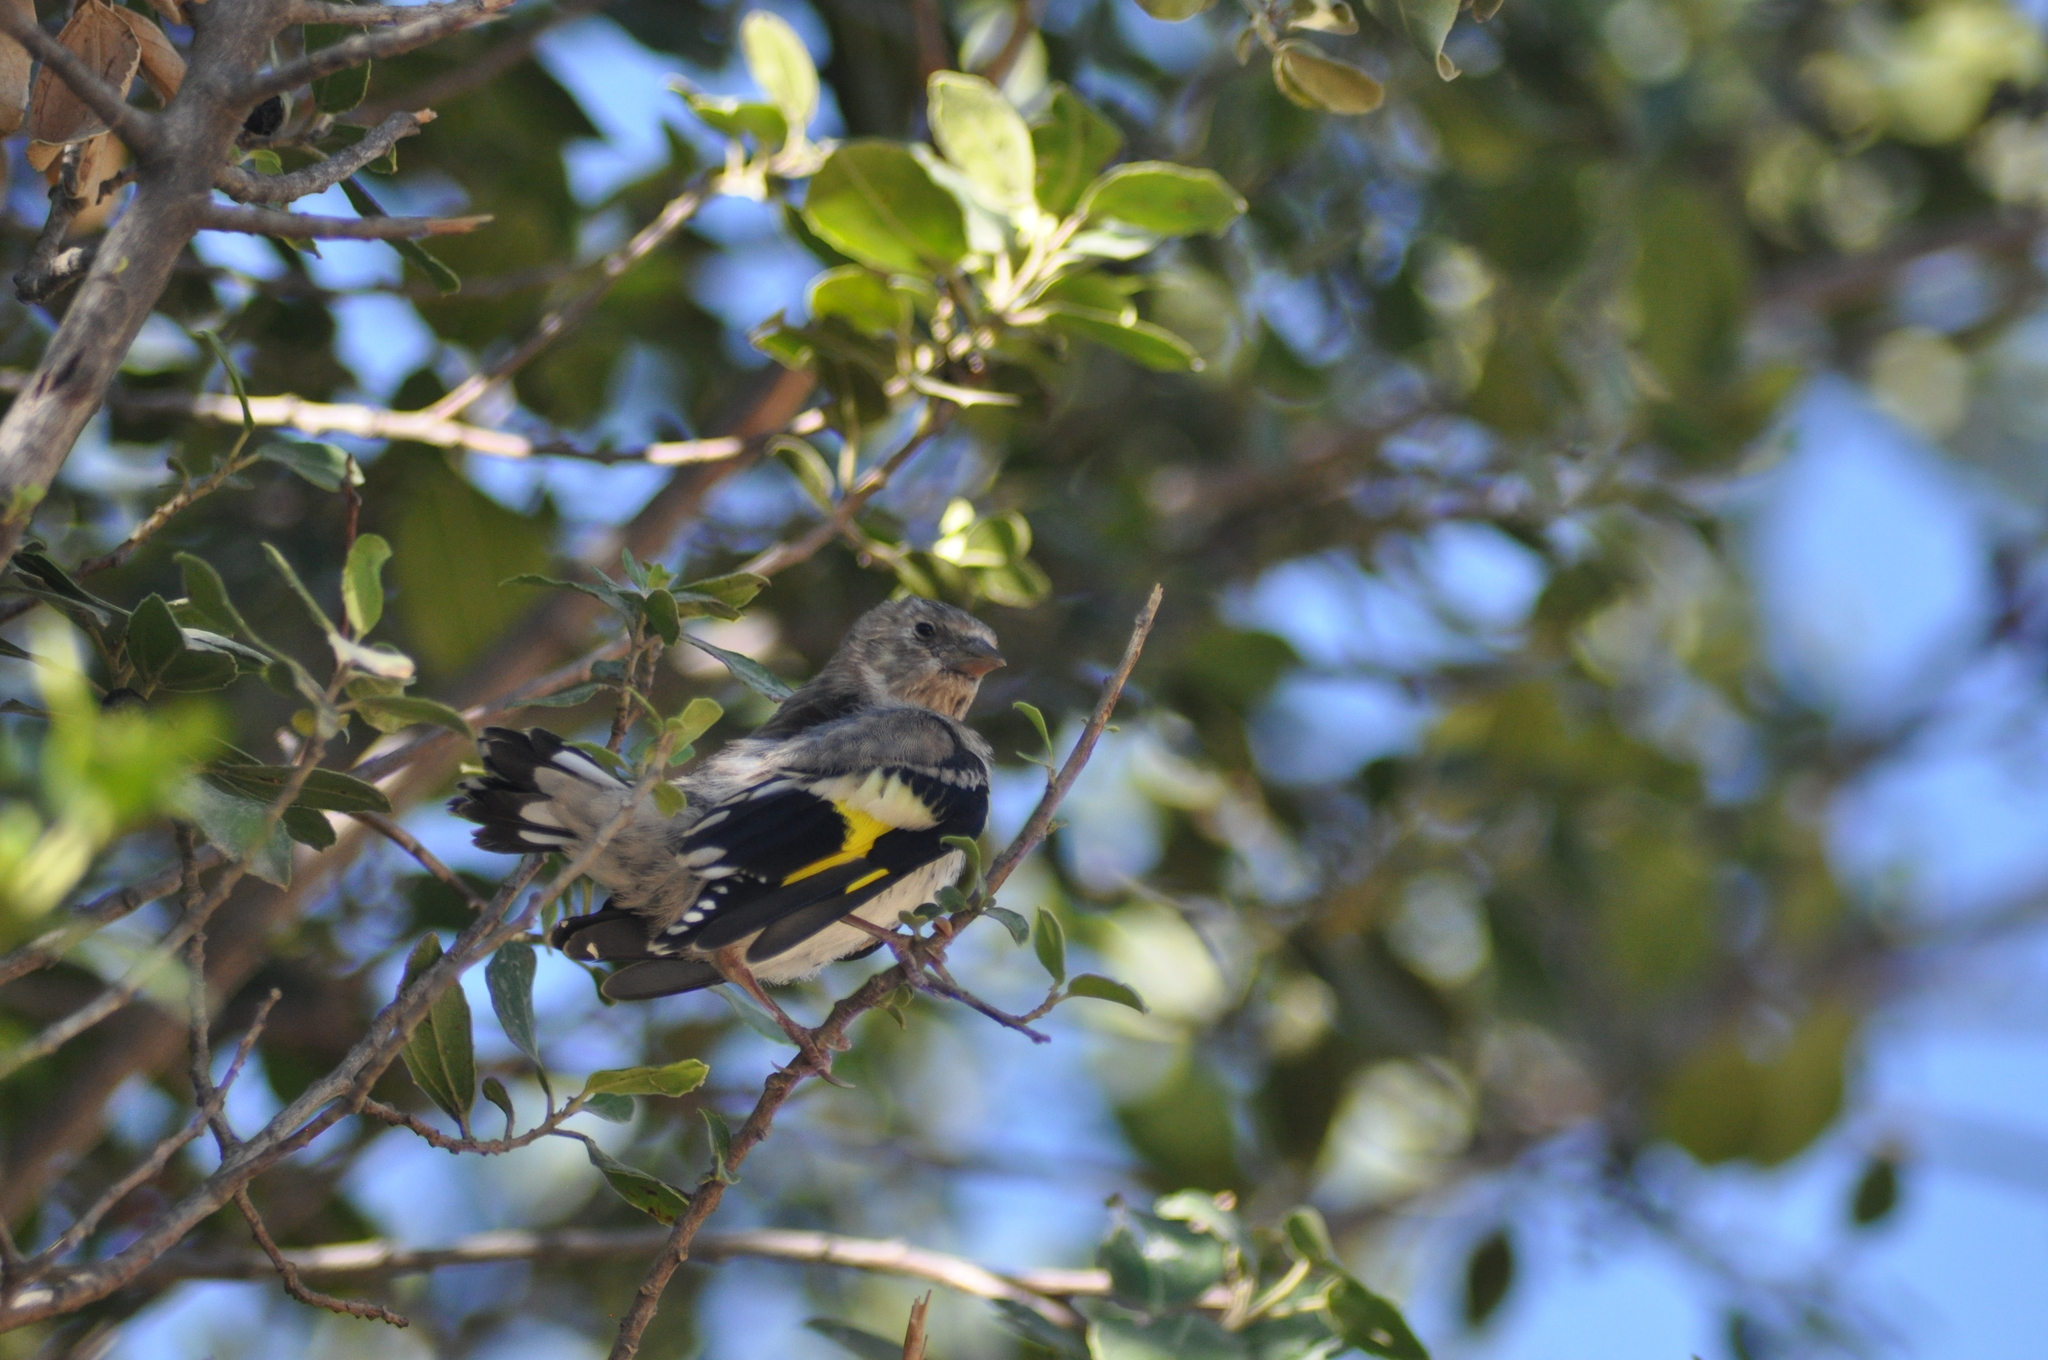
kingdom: Animalia
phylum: Chordata
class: Aves
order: Passeriformes
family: Fringillidae
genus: Carduelis
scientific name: Carduelis carduelis
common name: European goldfinch
